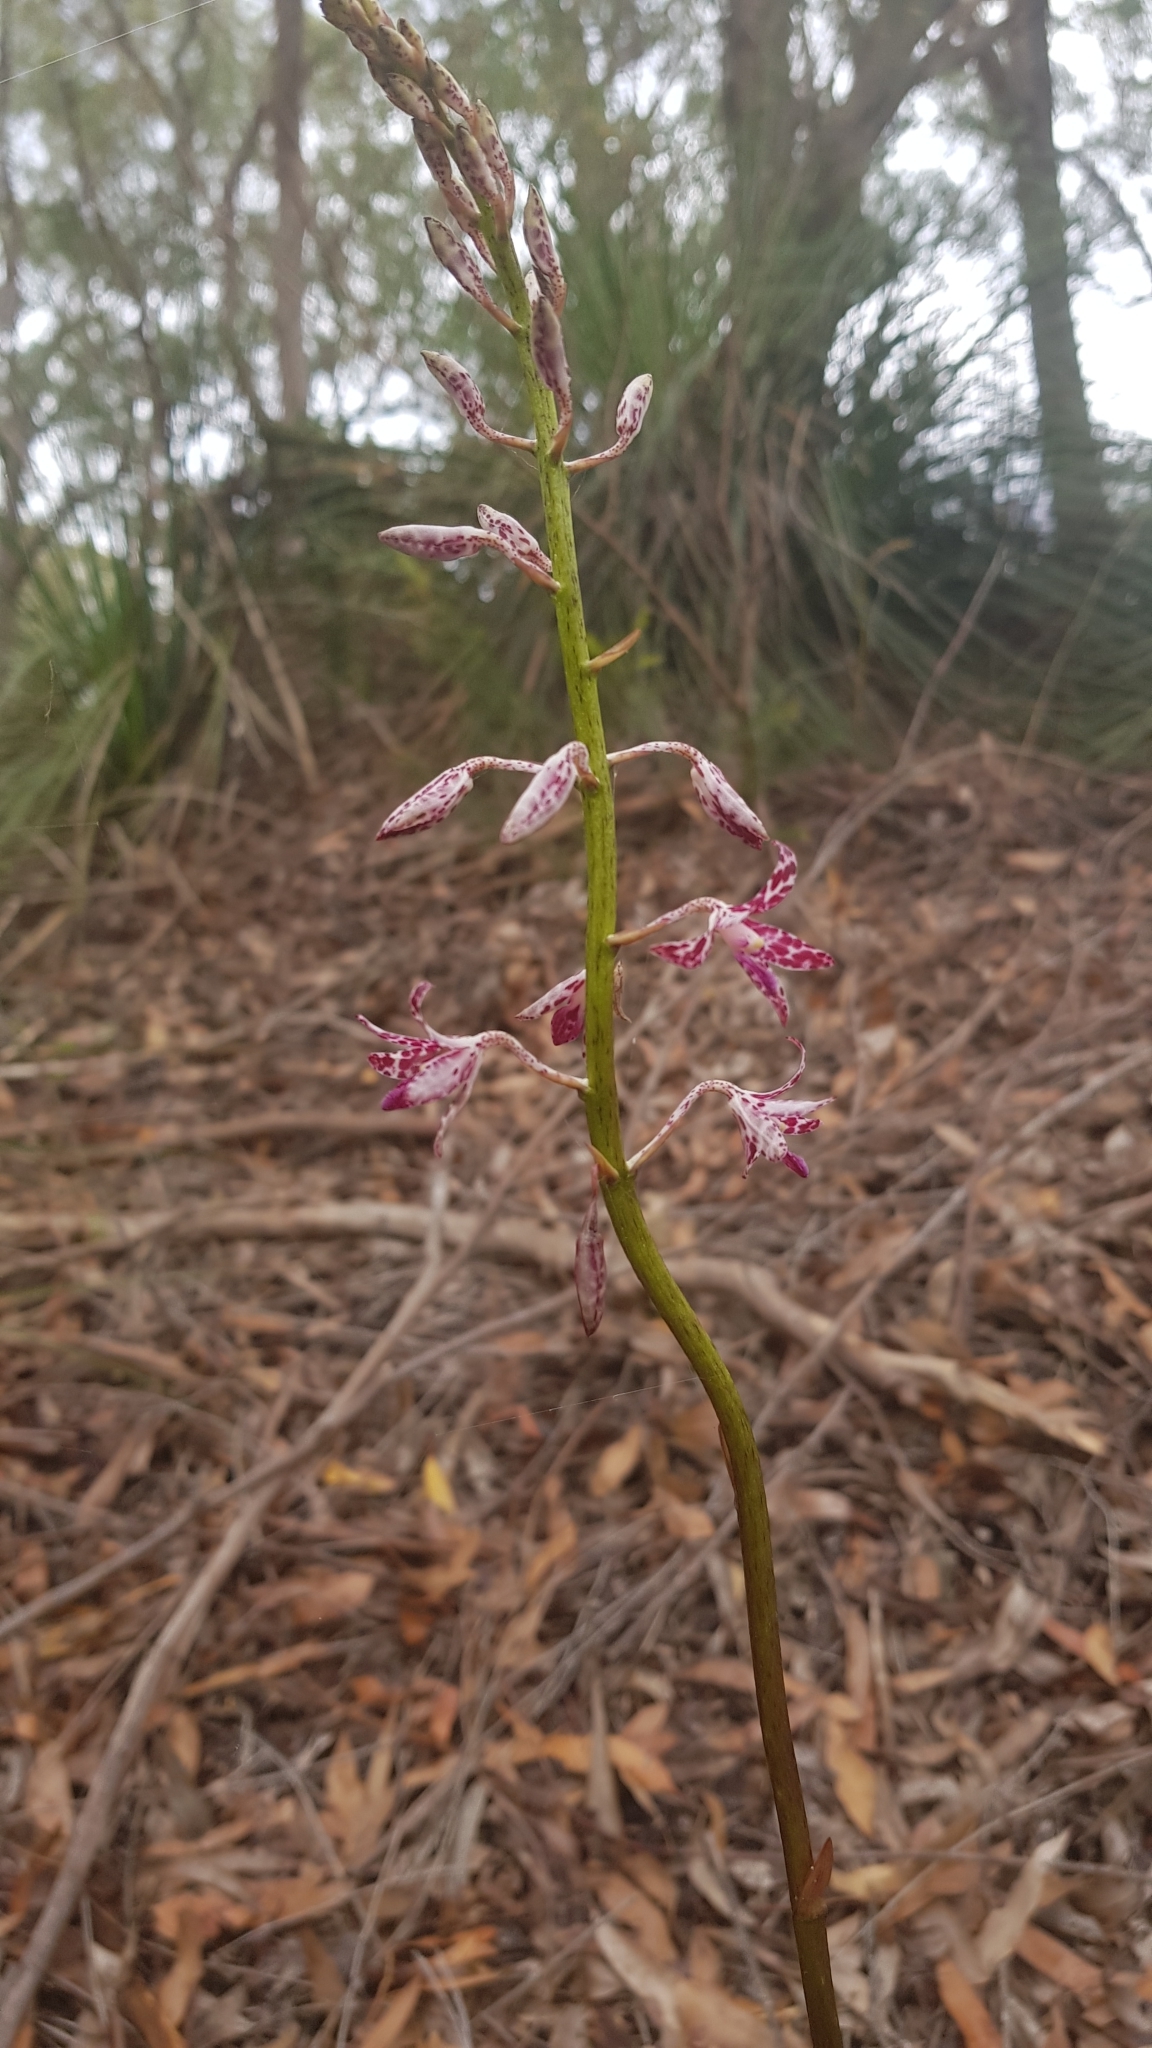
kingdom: Plantae
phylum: Tracheophyta
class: Liliopsida
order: Asparagales
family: Orchidaceae
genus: Dipodium
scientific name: Dipodium variegatum
